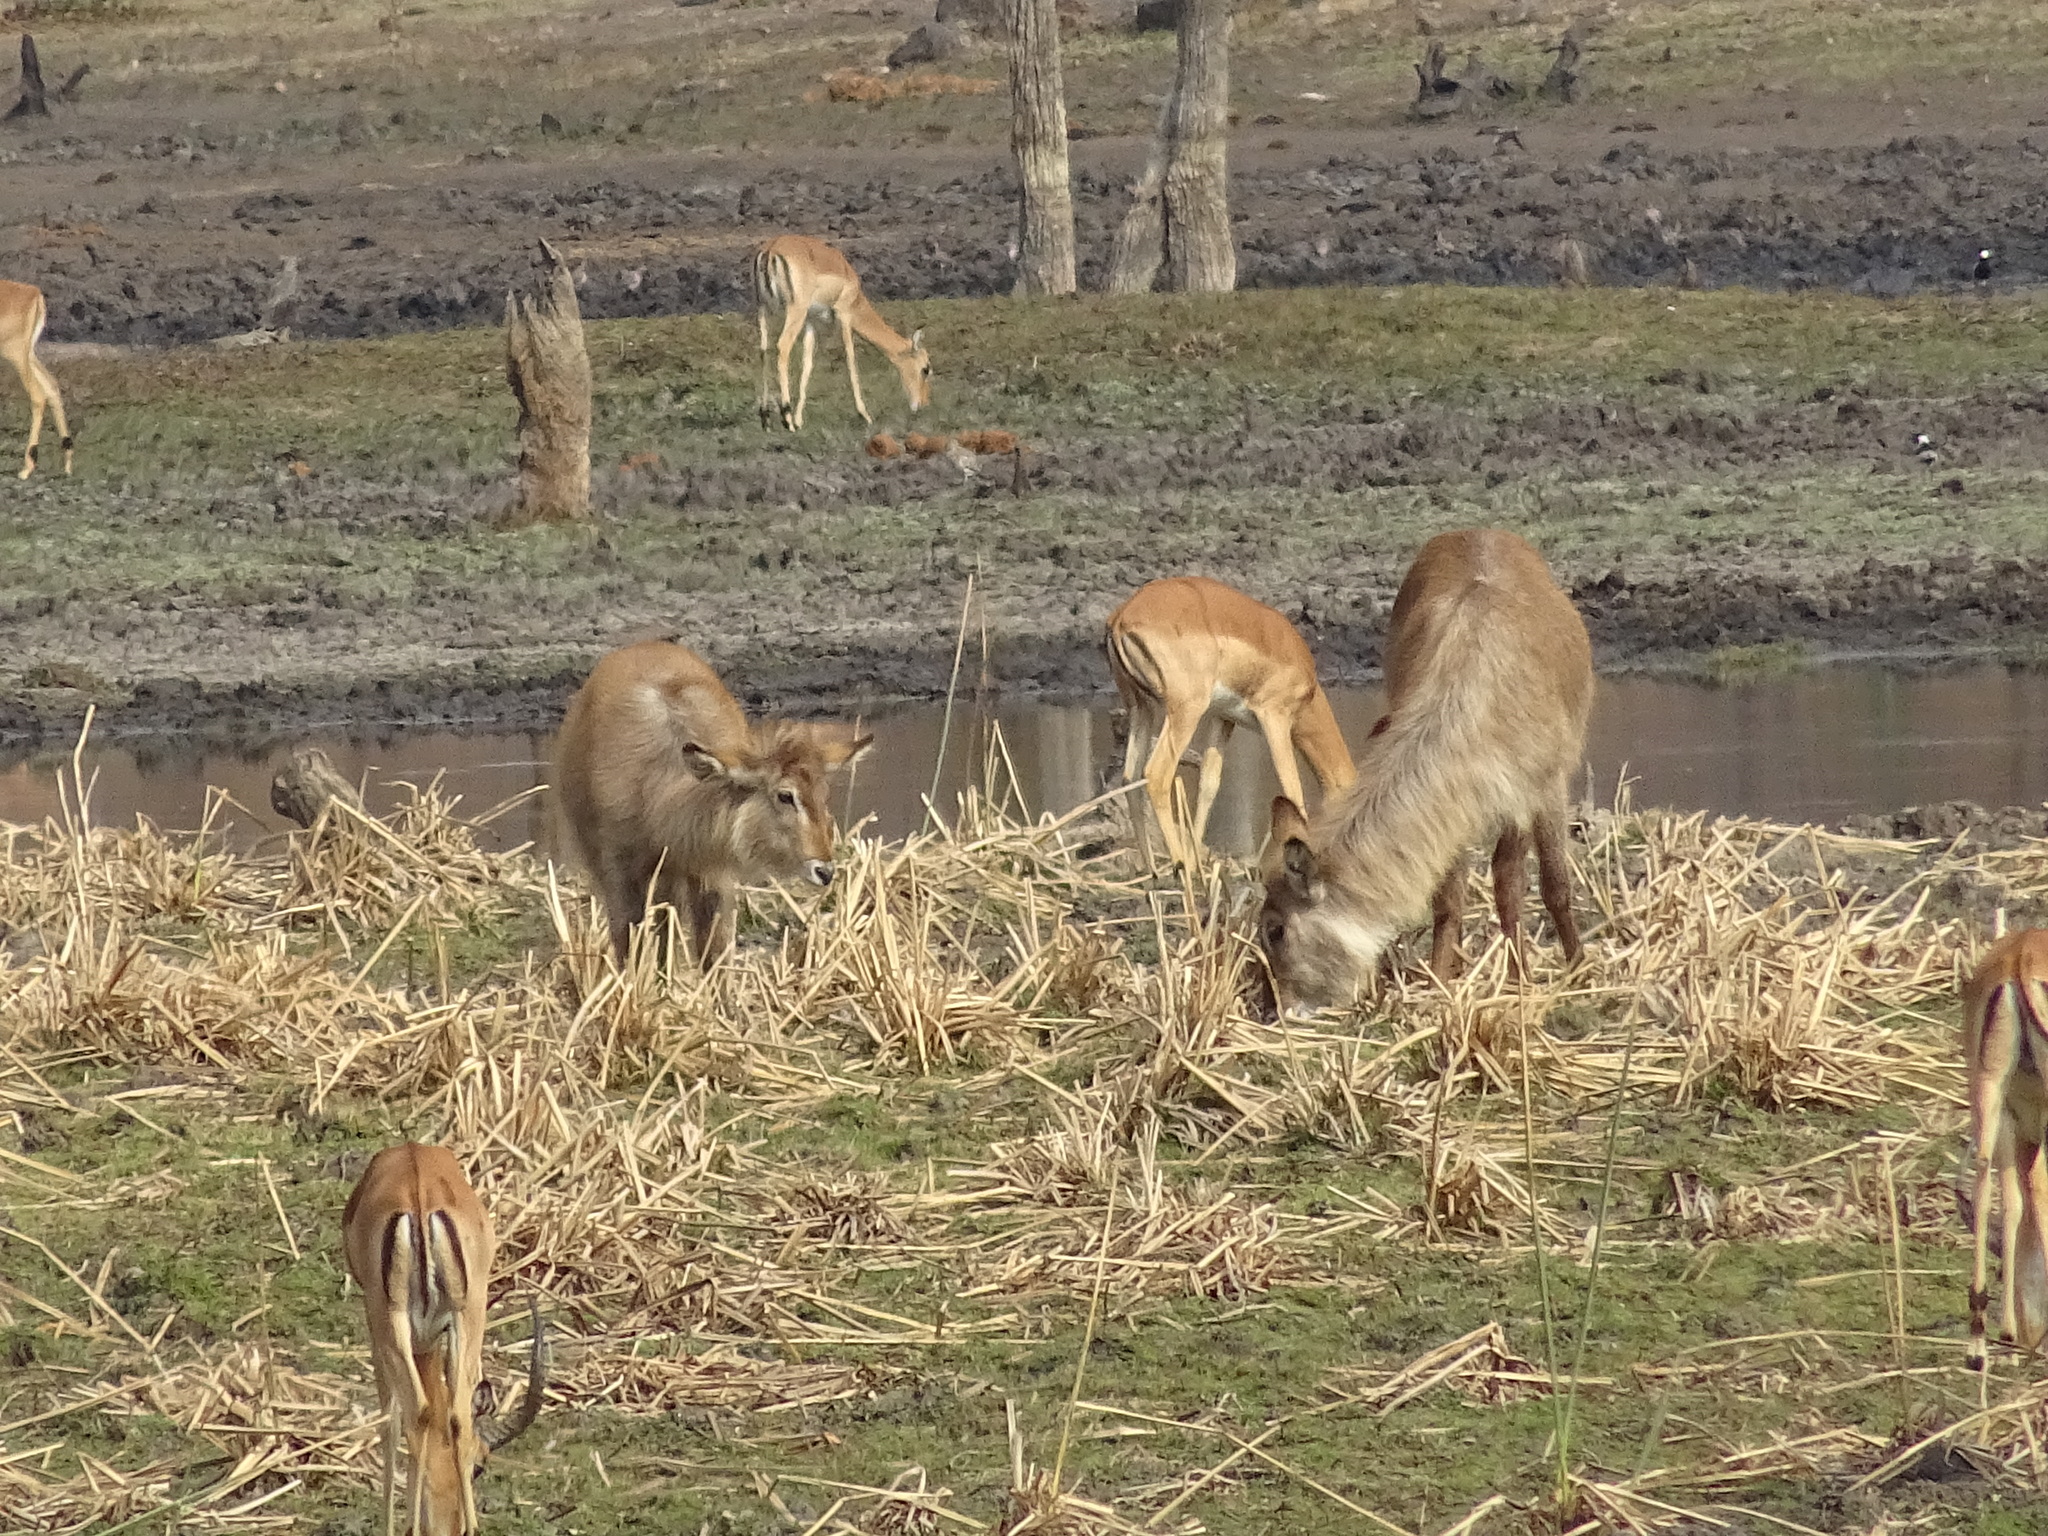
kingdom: Animalia
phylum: Chordata
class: Mammalia
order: Artiodactyla
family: Bovidae
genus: Kobus
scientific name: Kobus ellipsiprymnus
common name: Waterbuck
